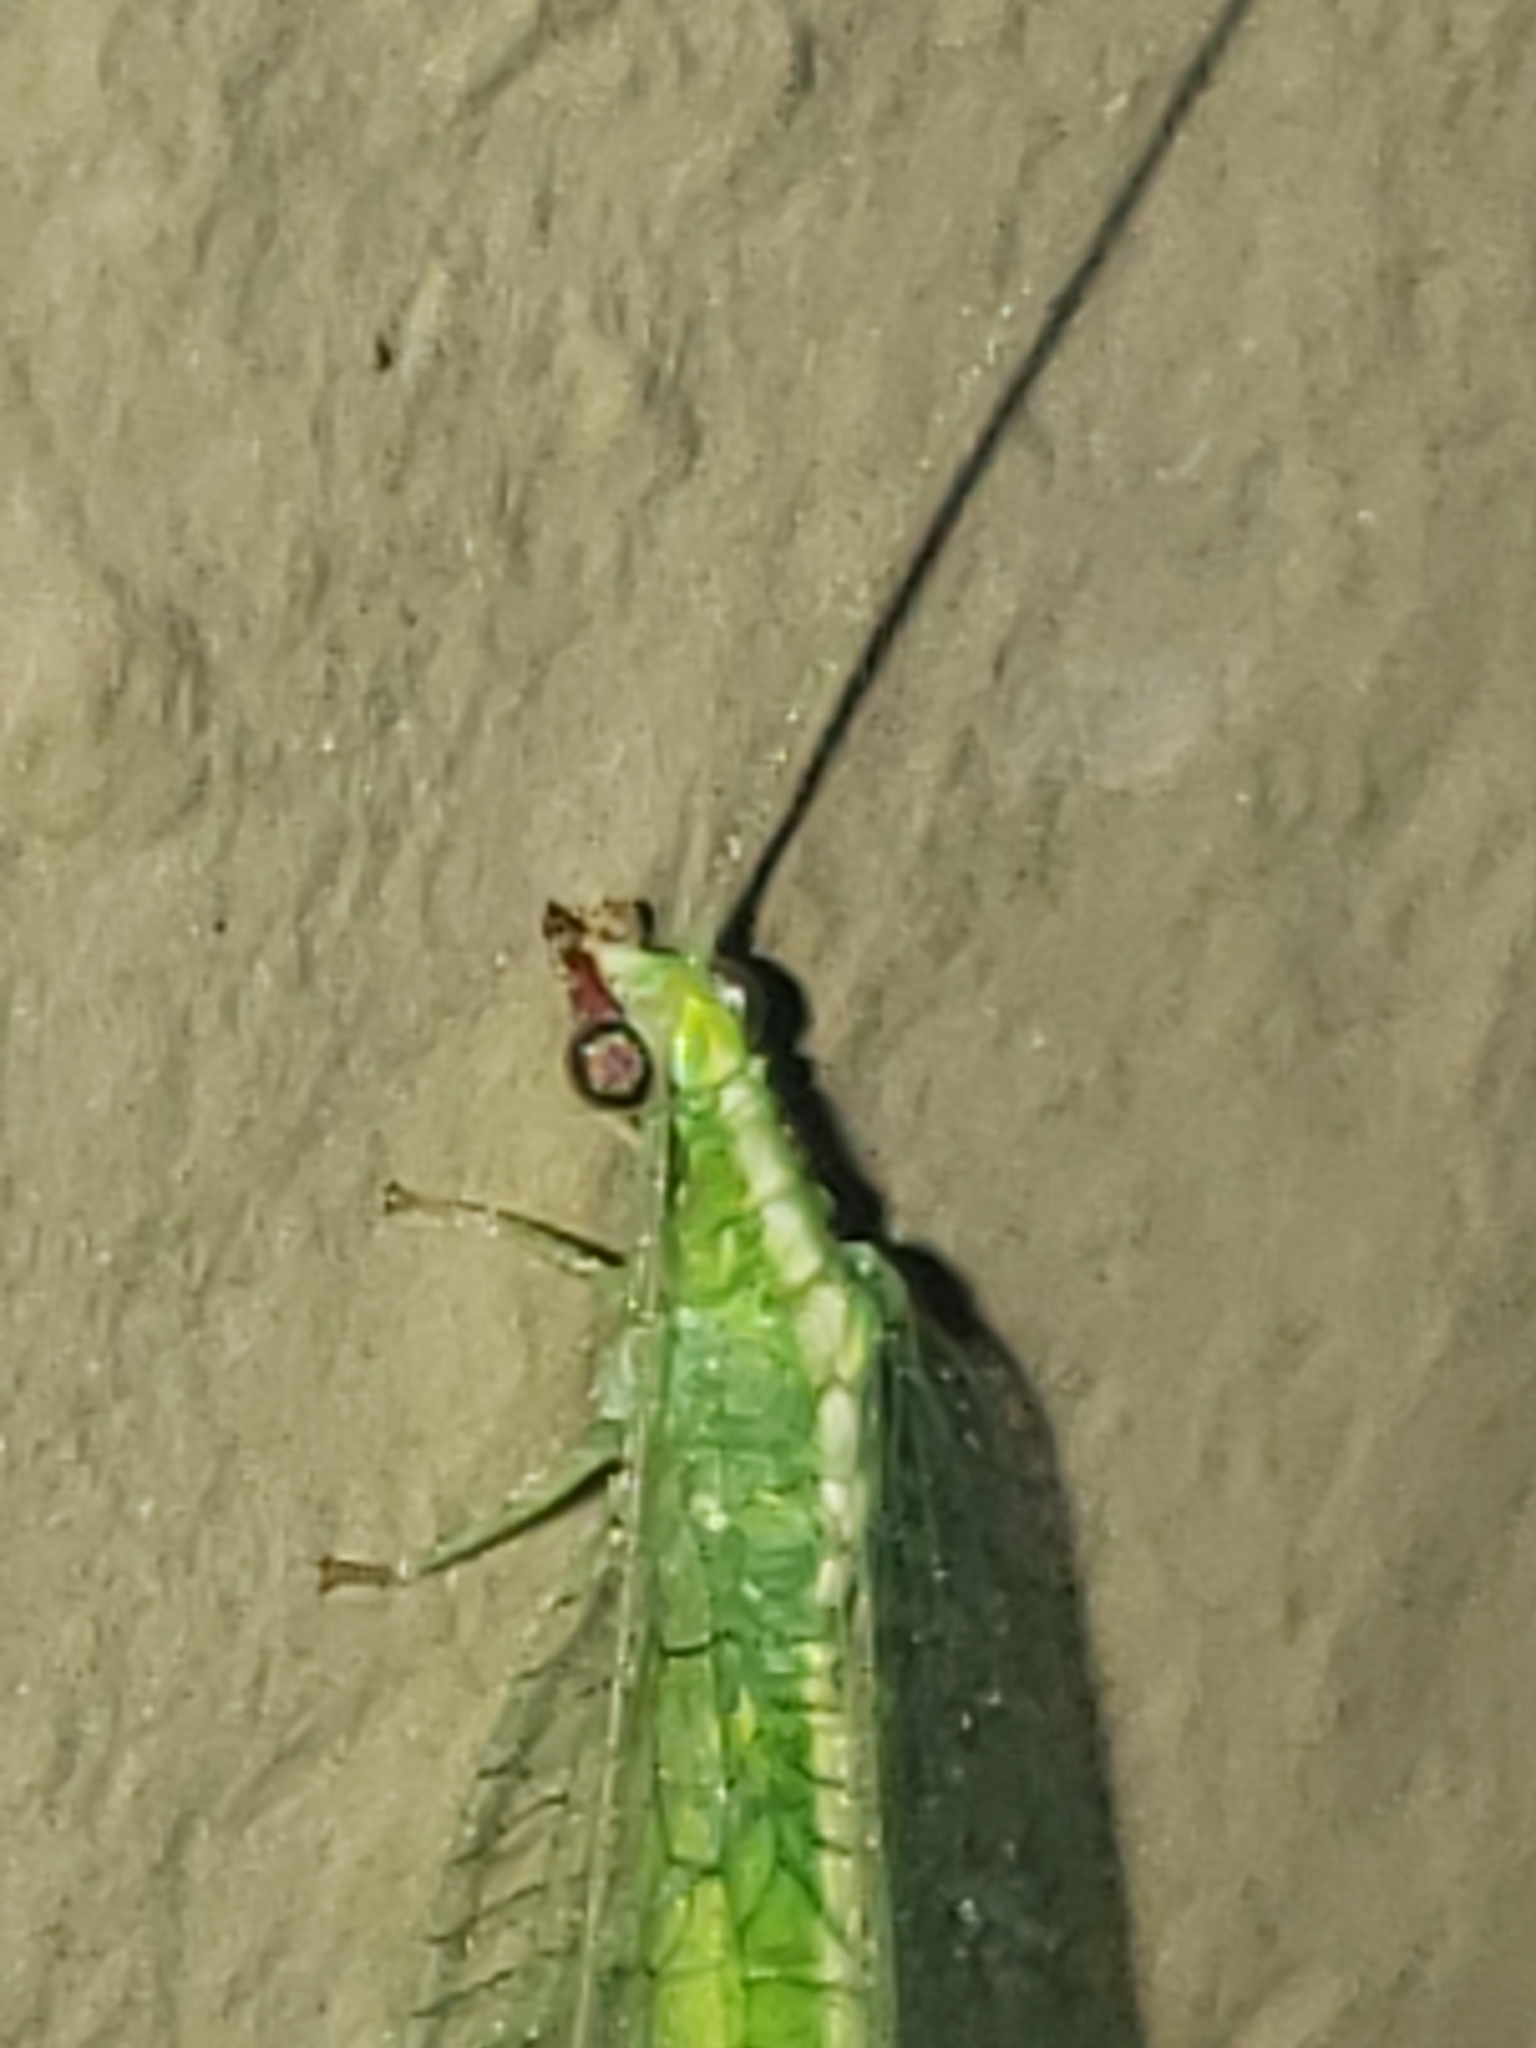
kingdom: Animalia
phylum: Arthropoda
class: Insecta
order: Neuroptera
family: Chrysopidae
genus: Chrysoperla
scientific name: Chrysoperla rufilabris
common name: Red-lipped green lacewing
